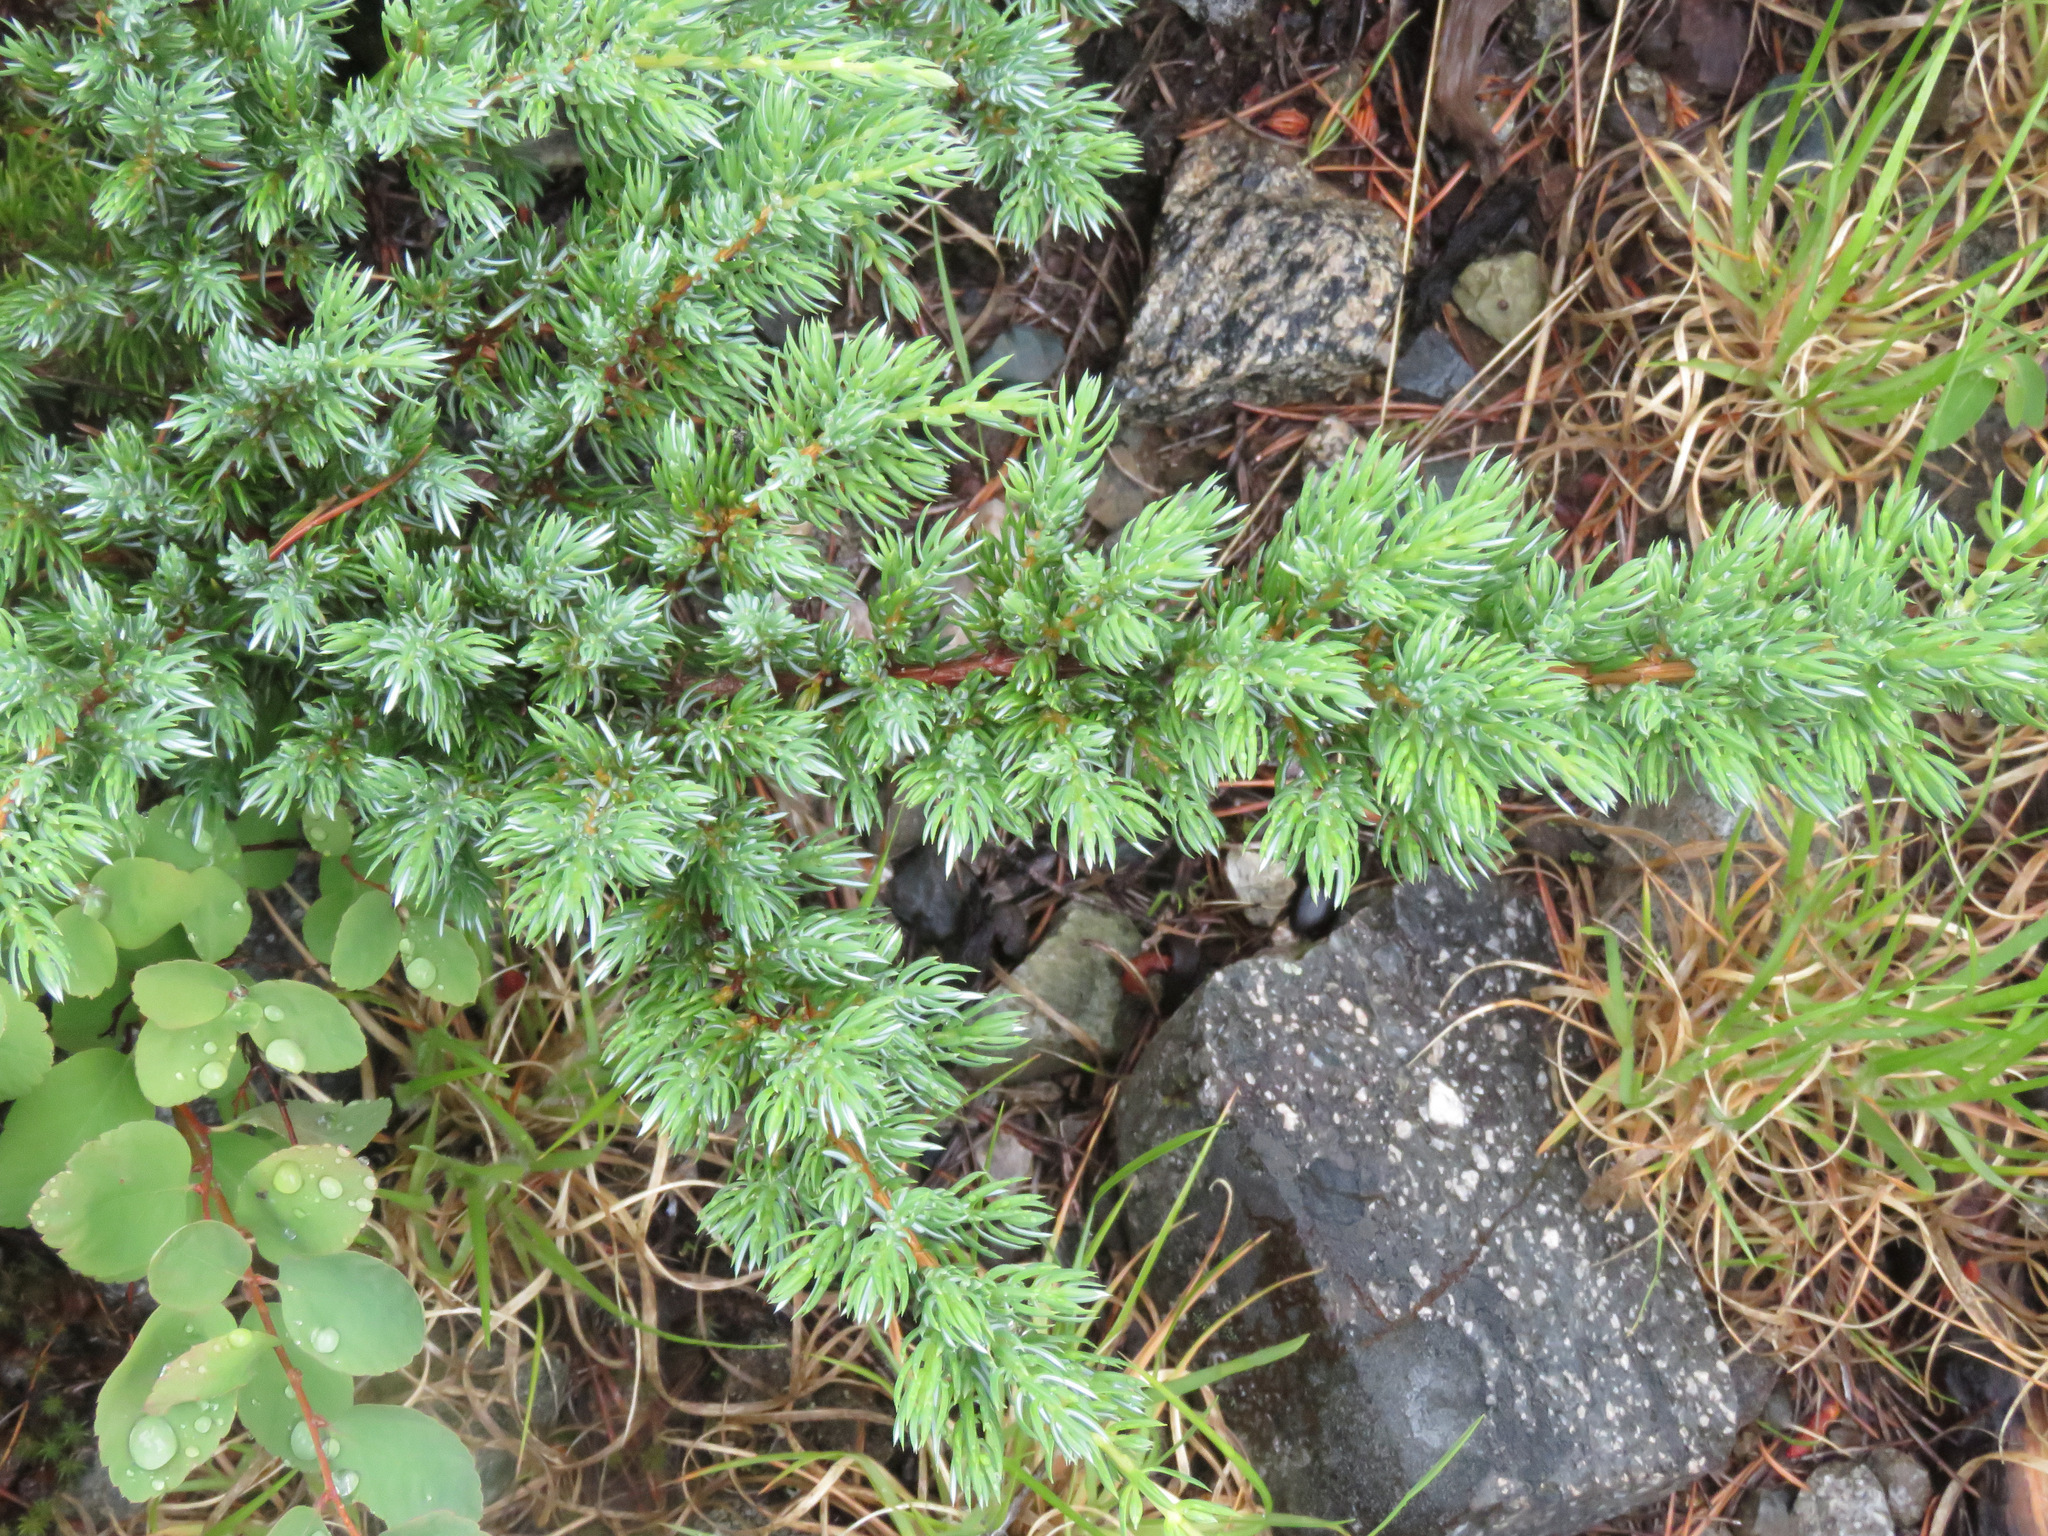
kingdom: Plantae
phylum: Tracheophyta
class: Pinopsida
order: Pinales
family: Cupressaceae
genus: Juniperus
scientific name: Juniperus communis
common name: Common juniper
